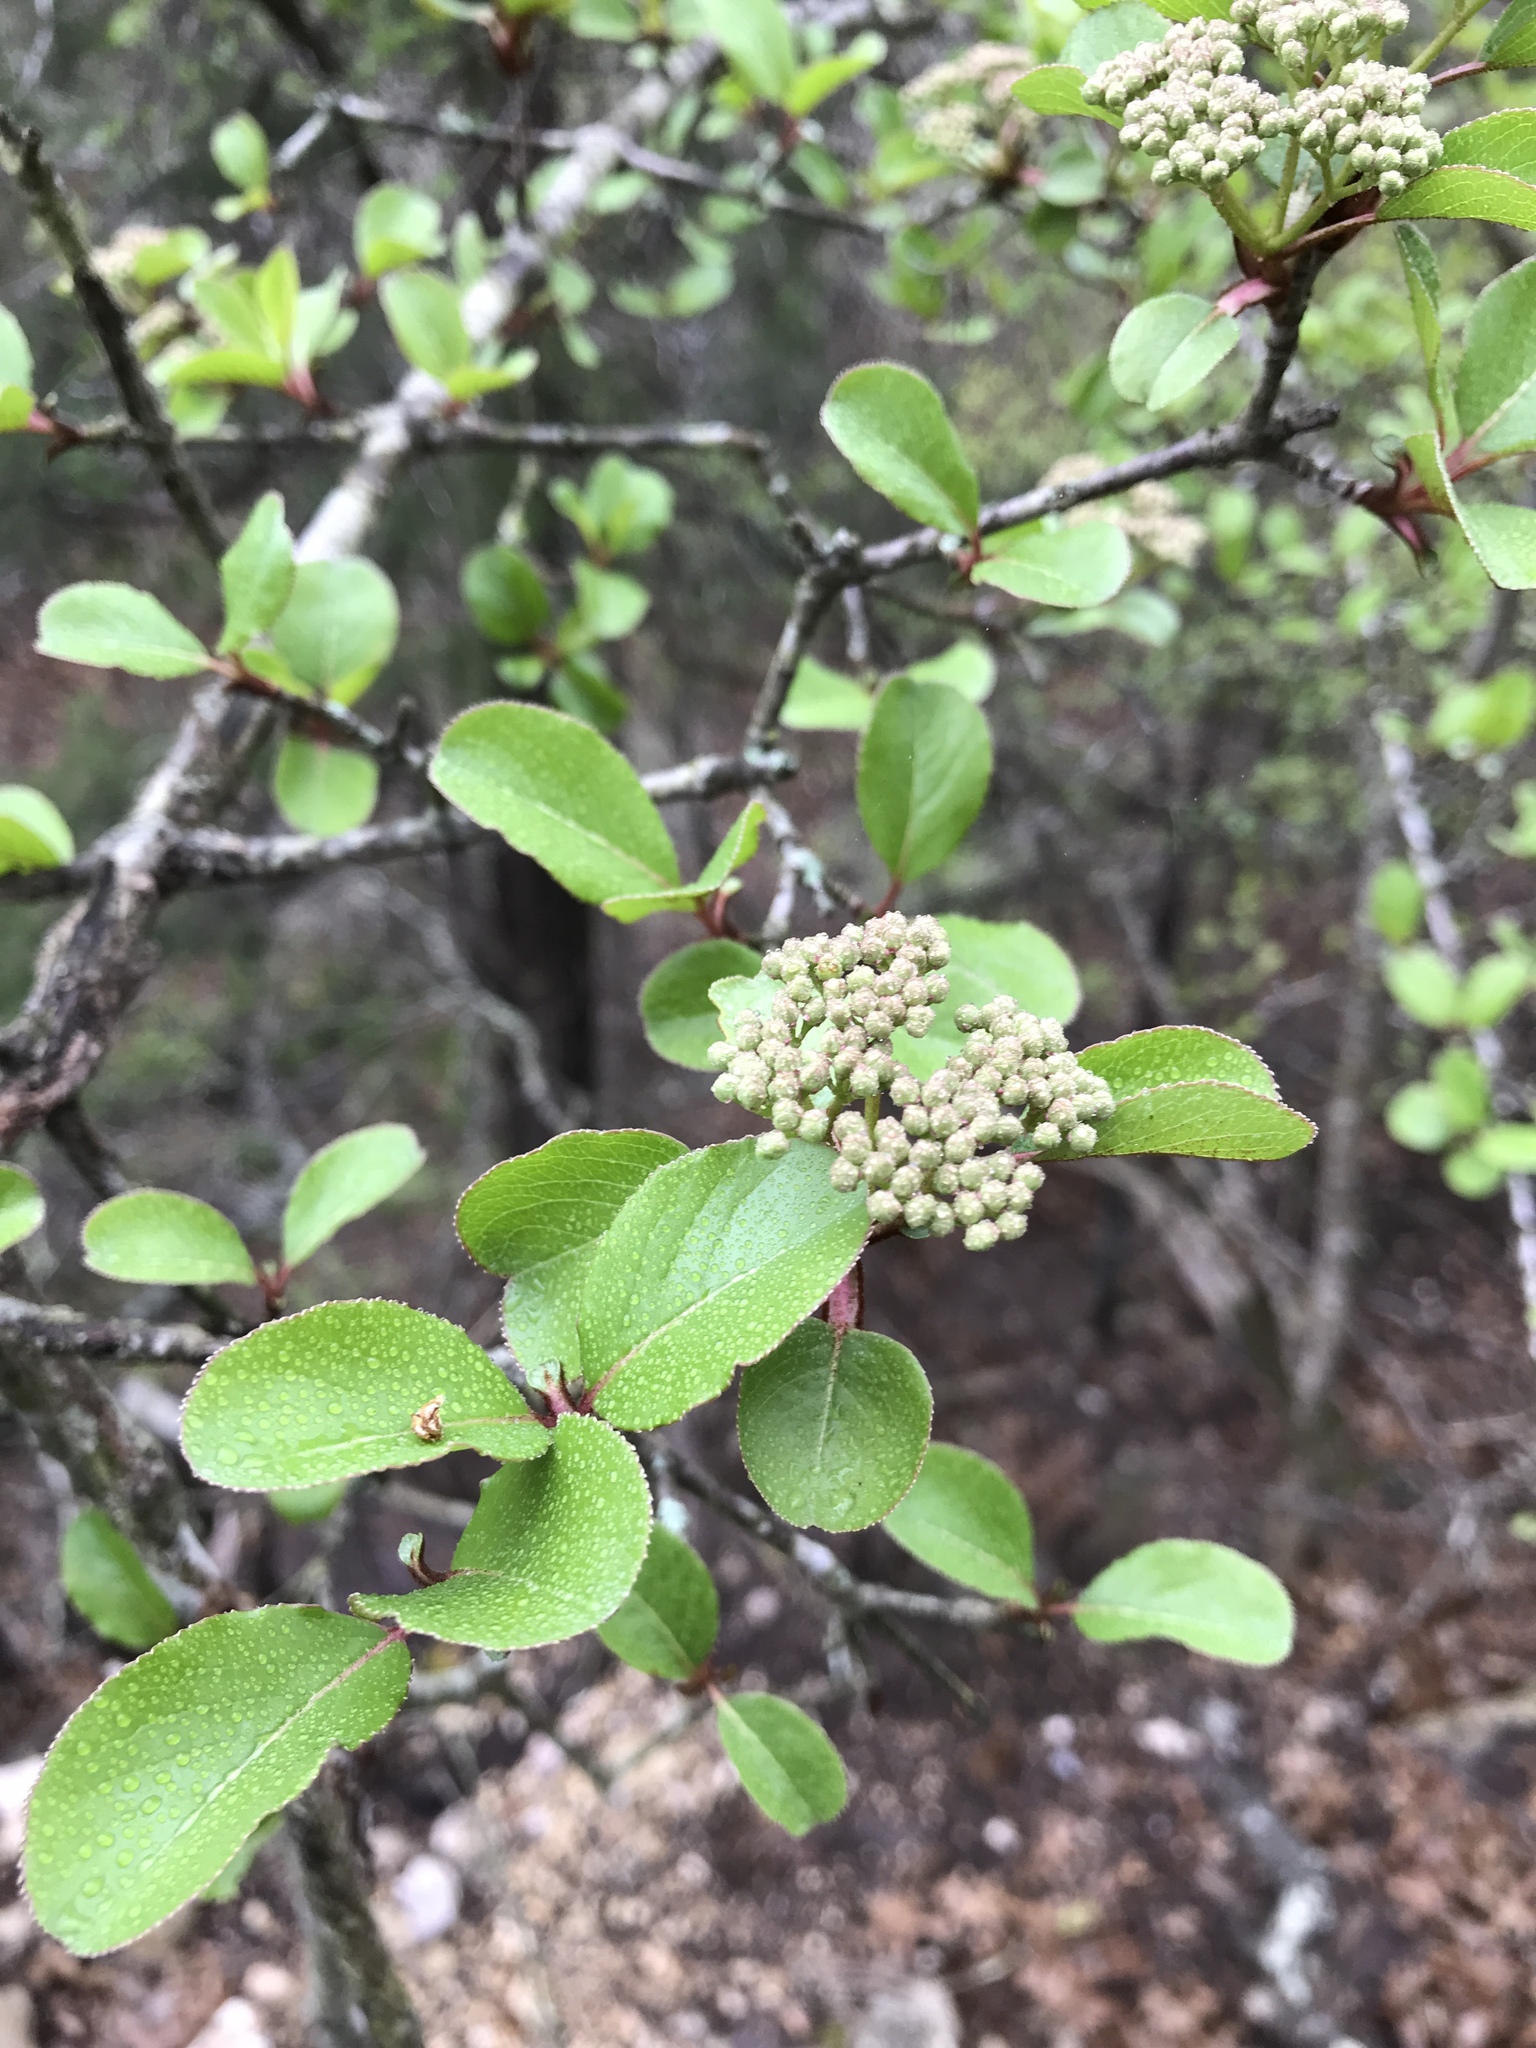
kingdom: Plantae
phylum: Tracheophyta
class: Magnoliopsida
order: Dipsacales
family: Viburnaceae
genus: Viburnum
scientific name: Viburnum rufidulum
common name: Blue haw
